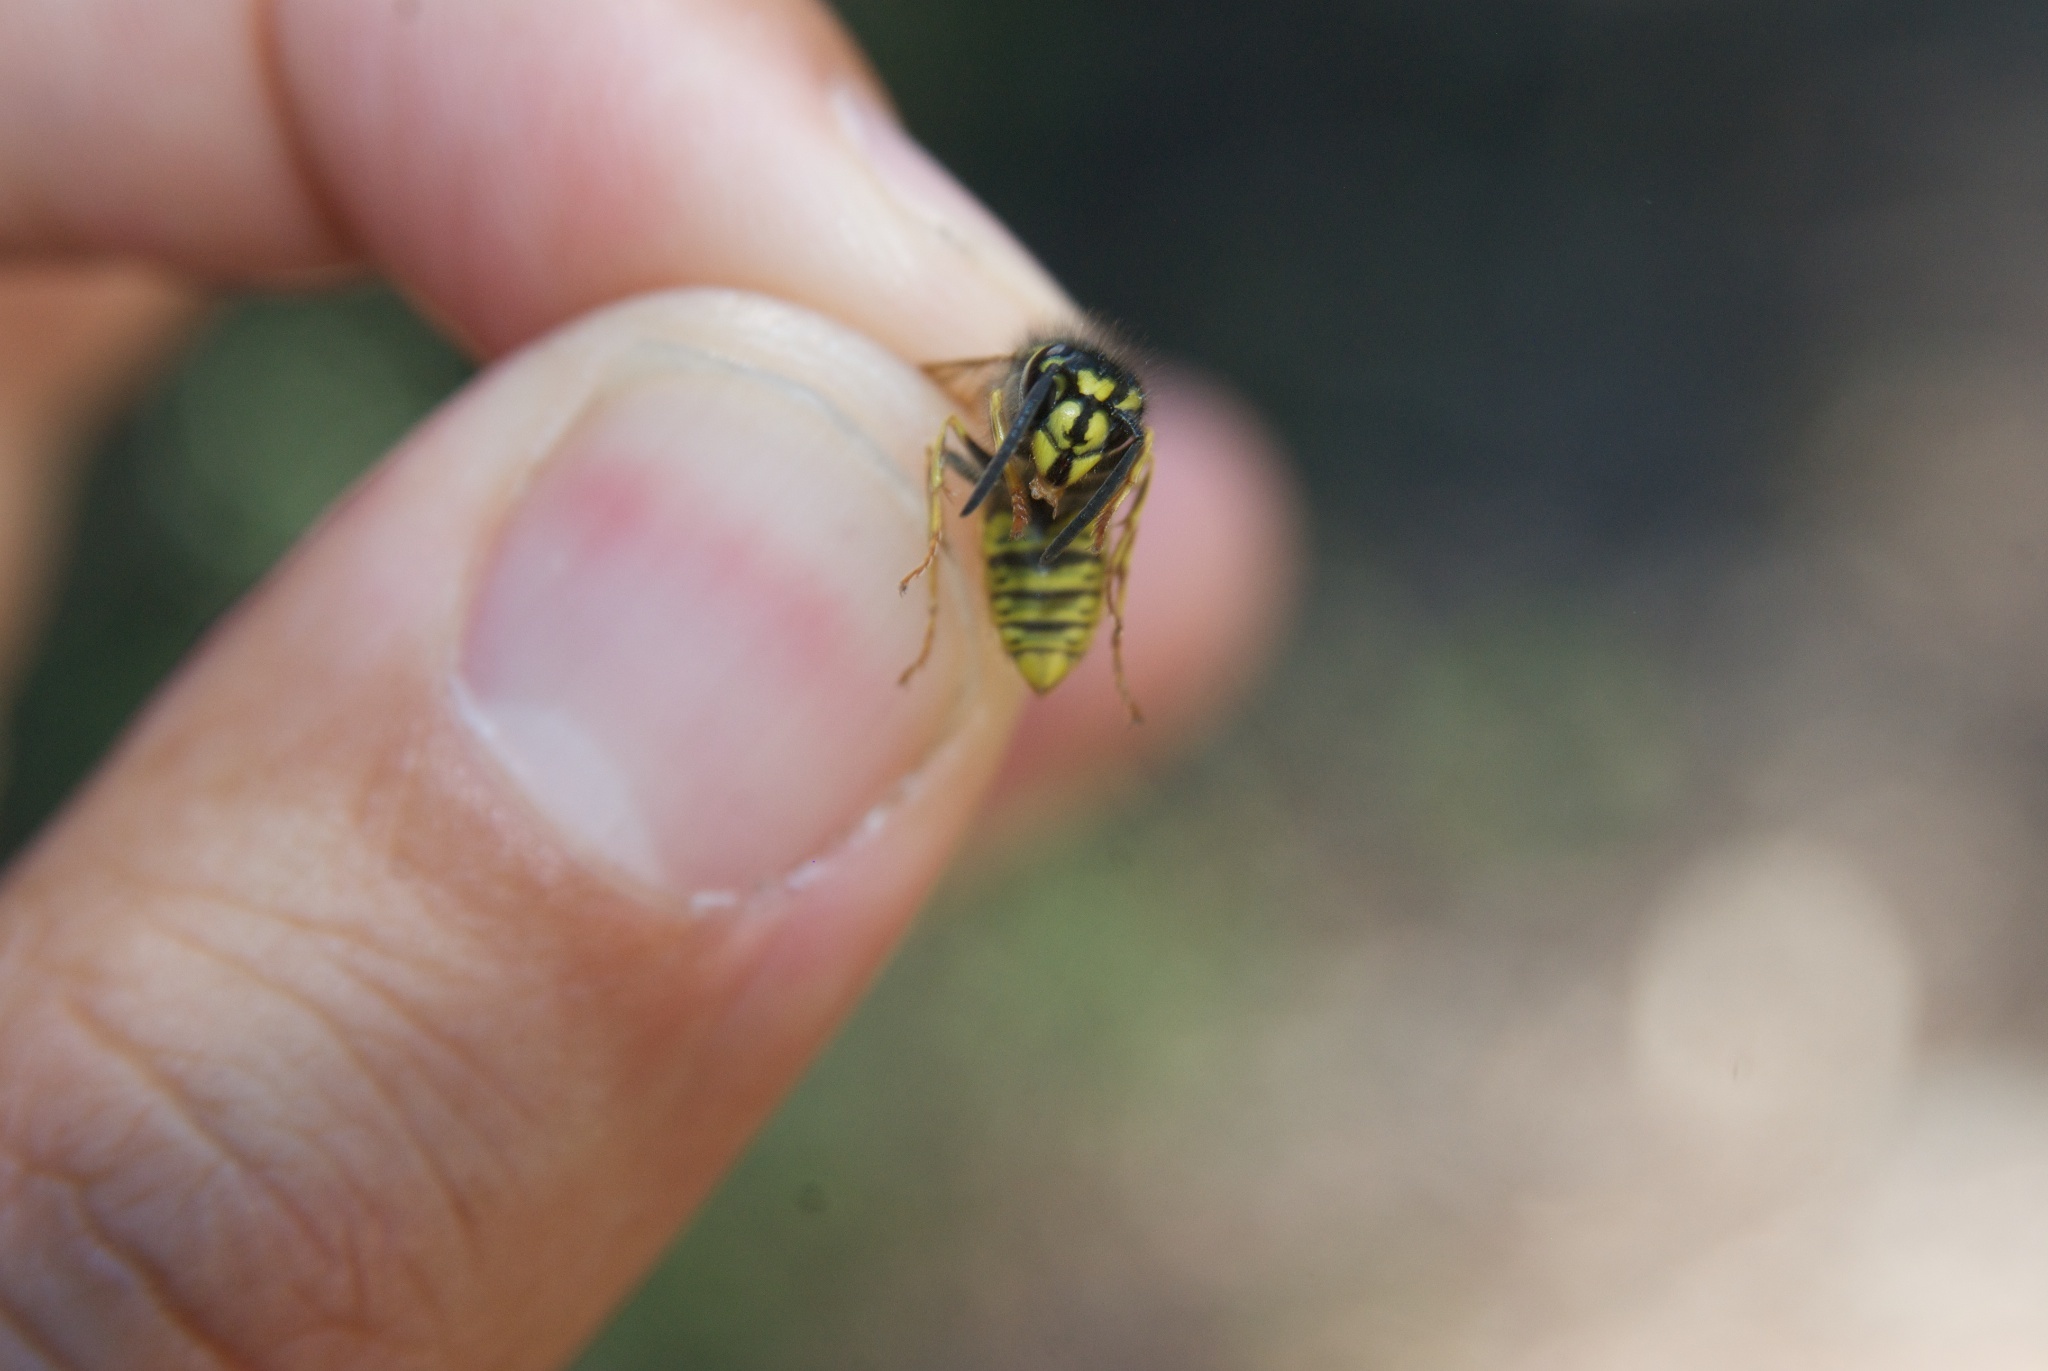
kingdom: Animalia
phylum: Arthropoda
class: Insecta
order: Hymenoptera
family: Vespidae
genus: Vespula
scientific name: Vespula vulgaris
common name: Common wasp
